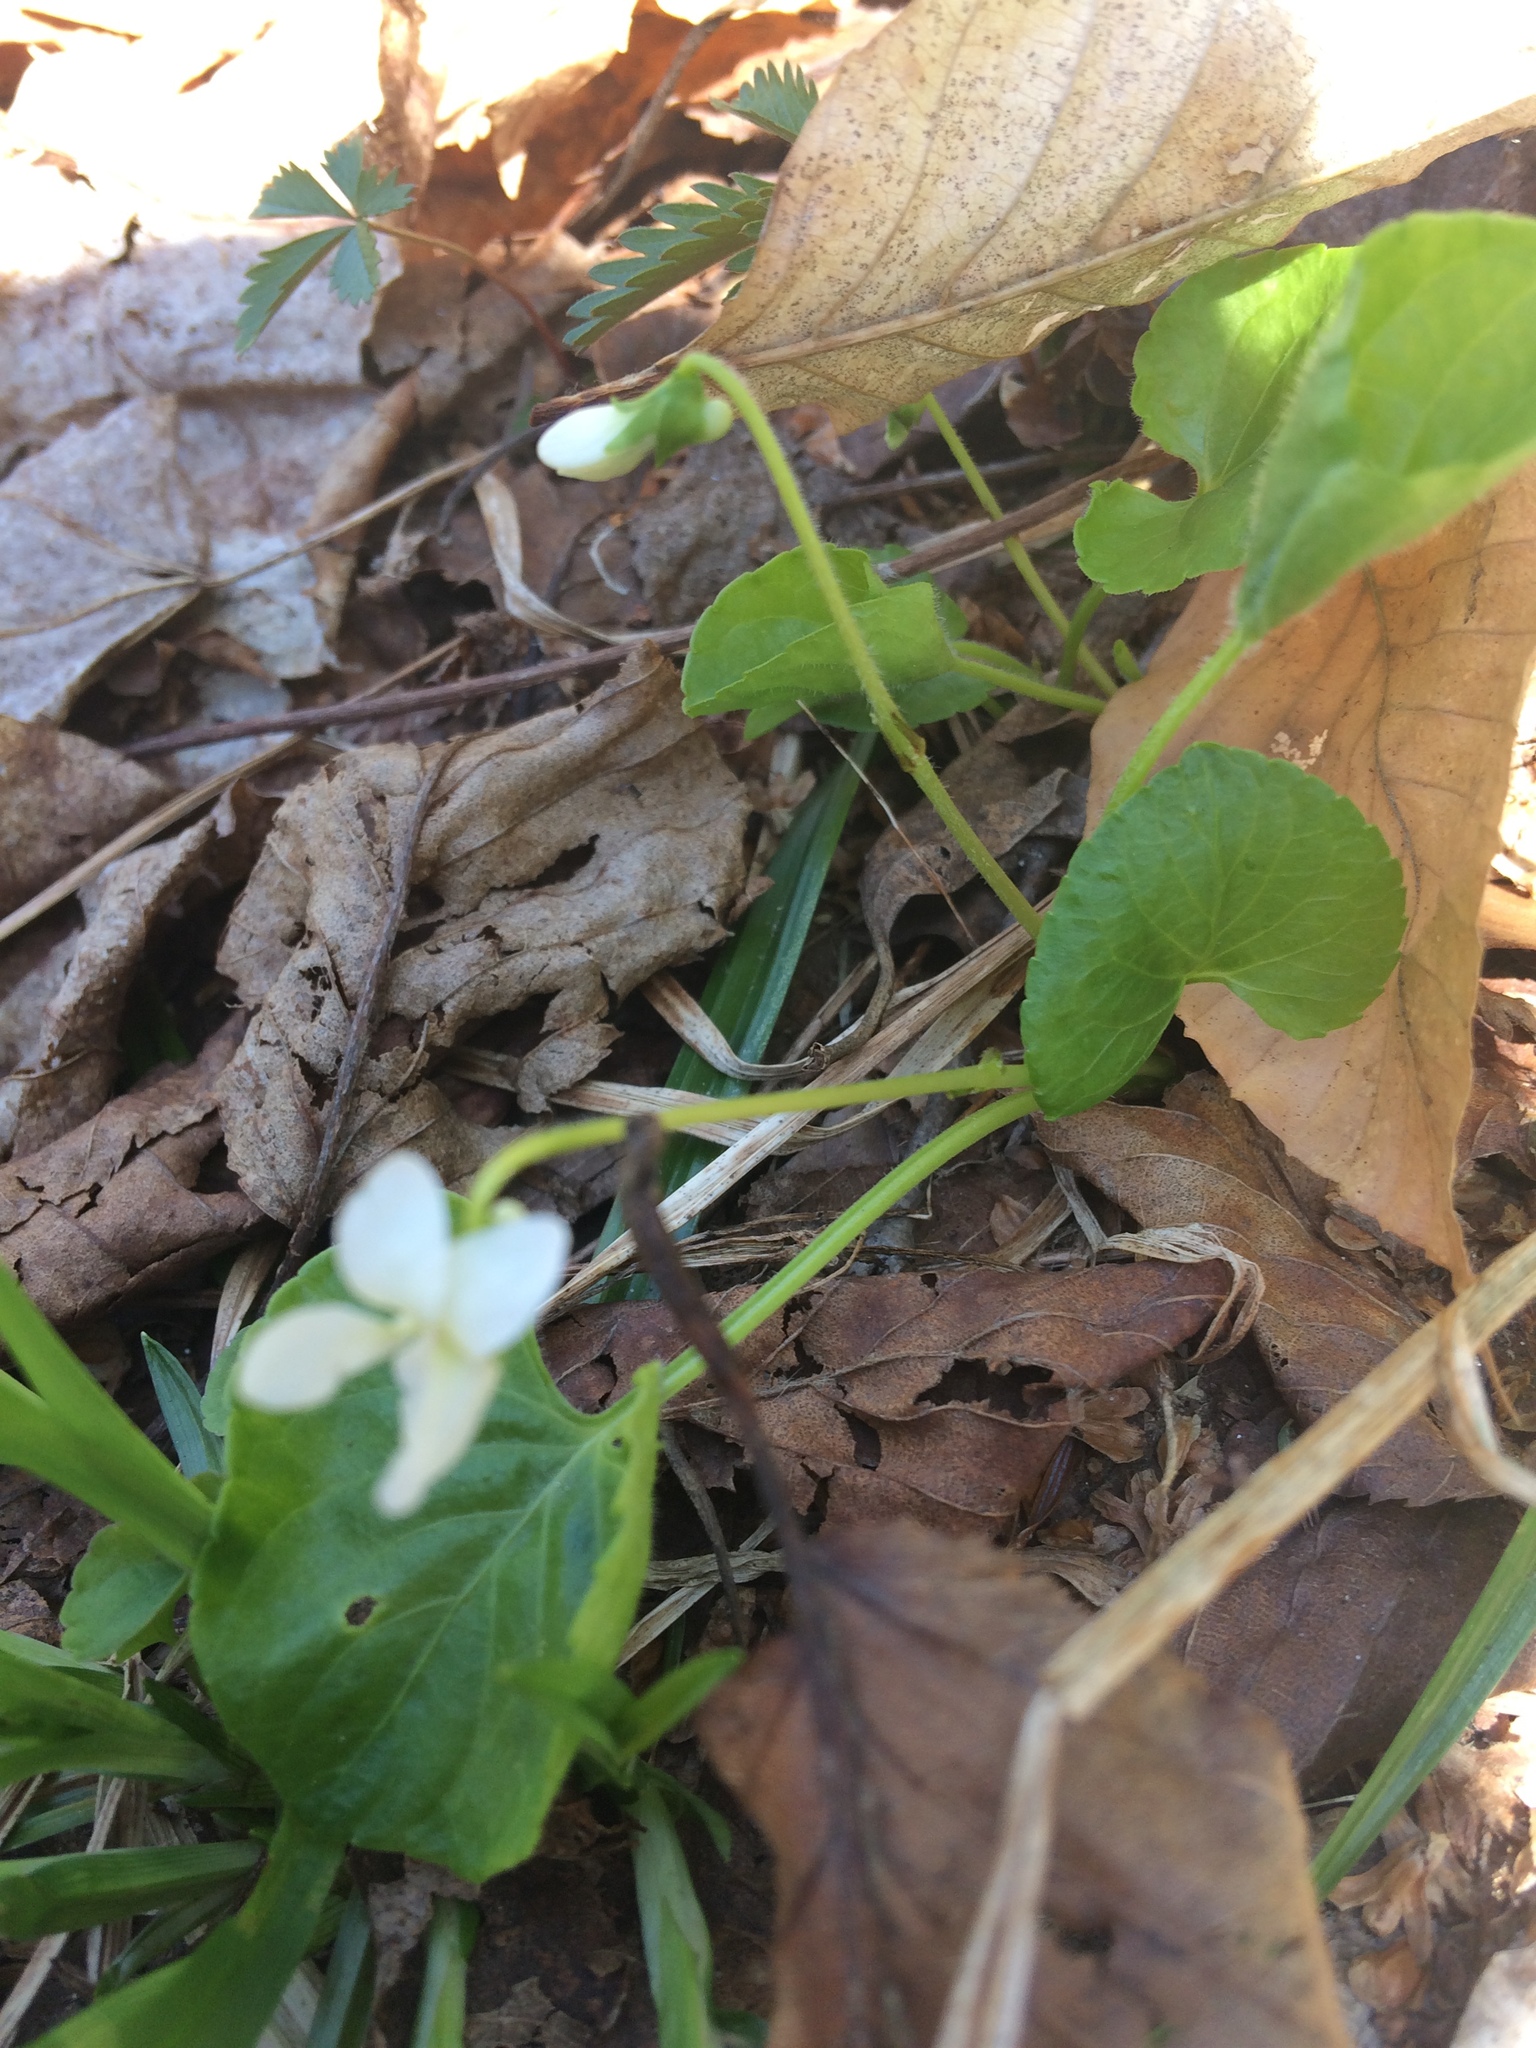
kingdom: Plantae
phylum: Tracheophyta
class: Magnoliopsida
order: Malpighiales
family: Violaceae
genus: Viola
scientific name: Viola renifolia
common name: Kidney-leaf violet
